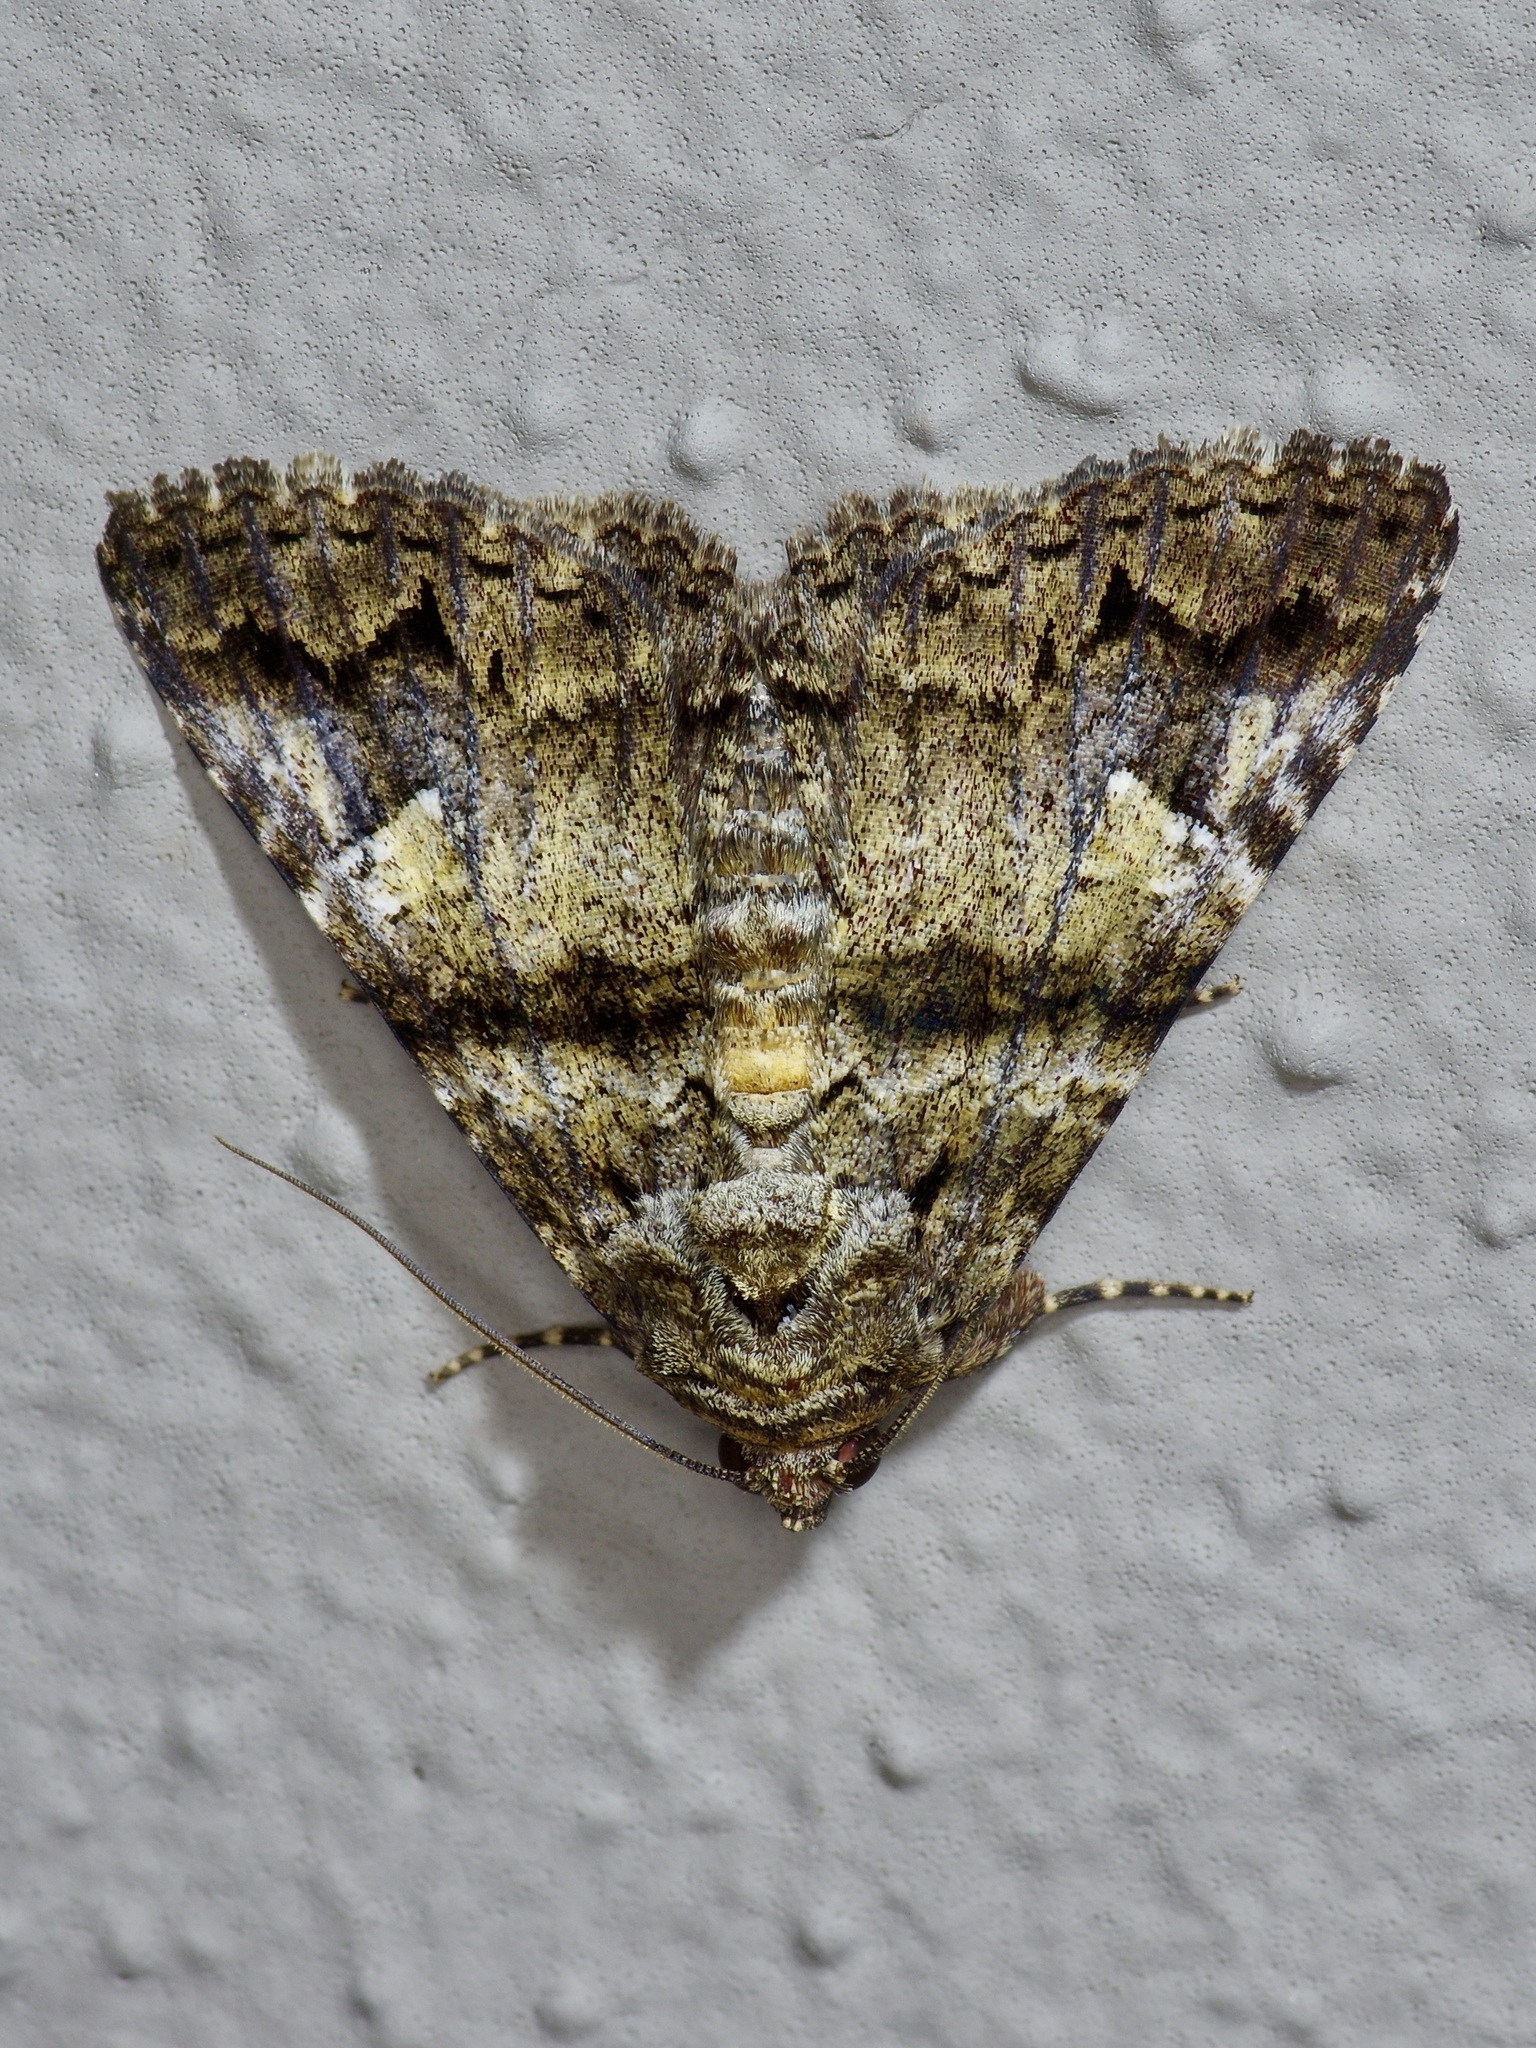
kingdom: Animalia
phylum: Arthropoda
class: Insecta
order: Lepidoptera
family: Erebidae
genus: Metria
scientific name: Metria amella
